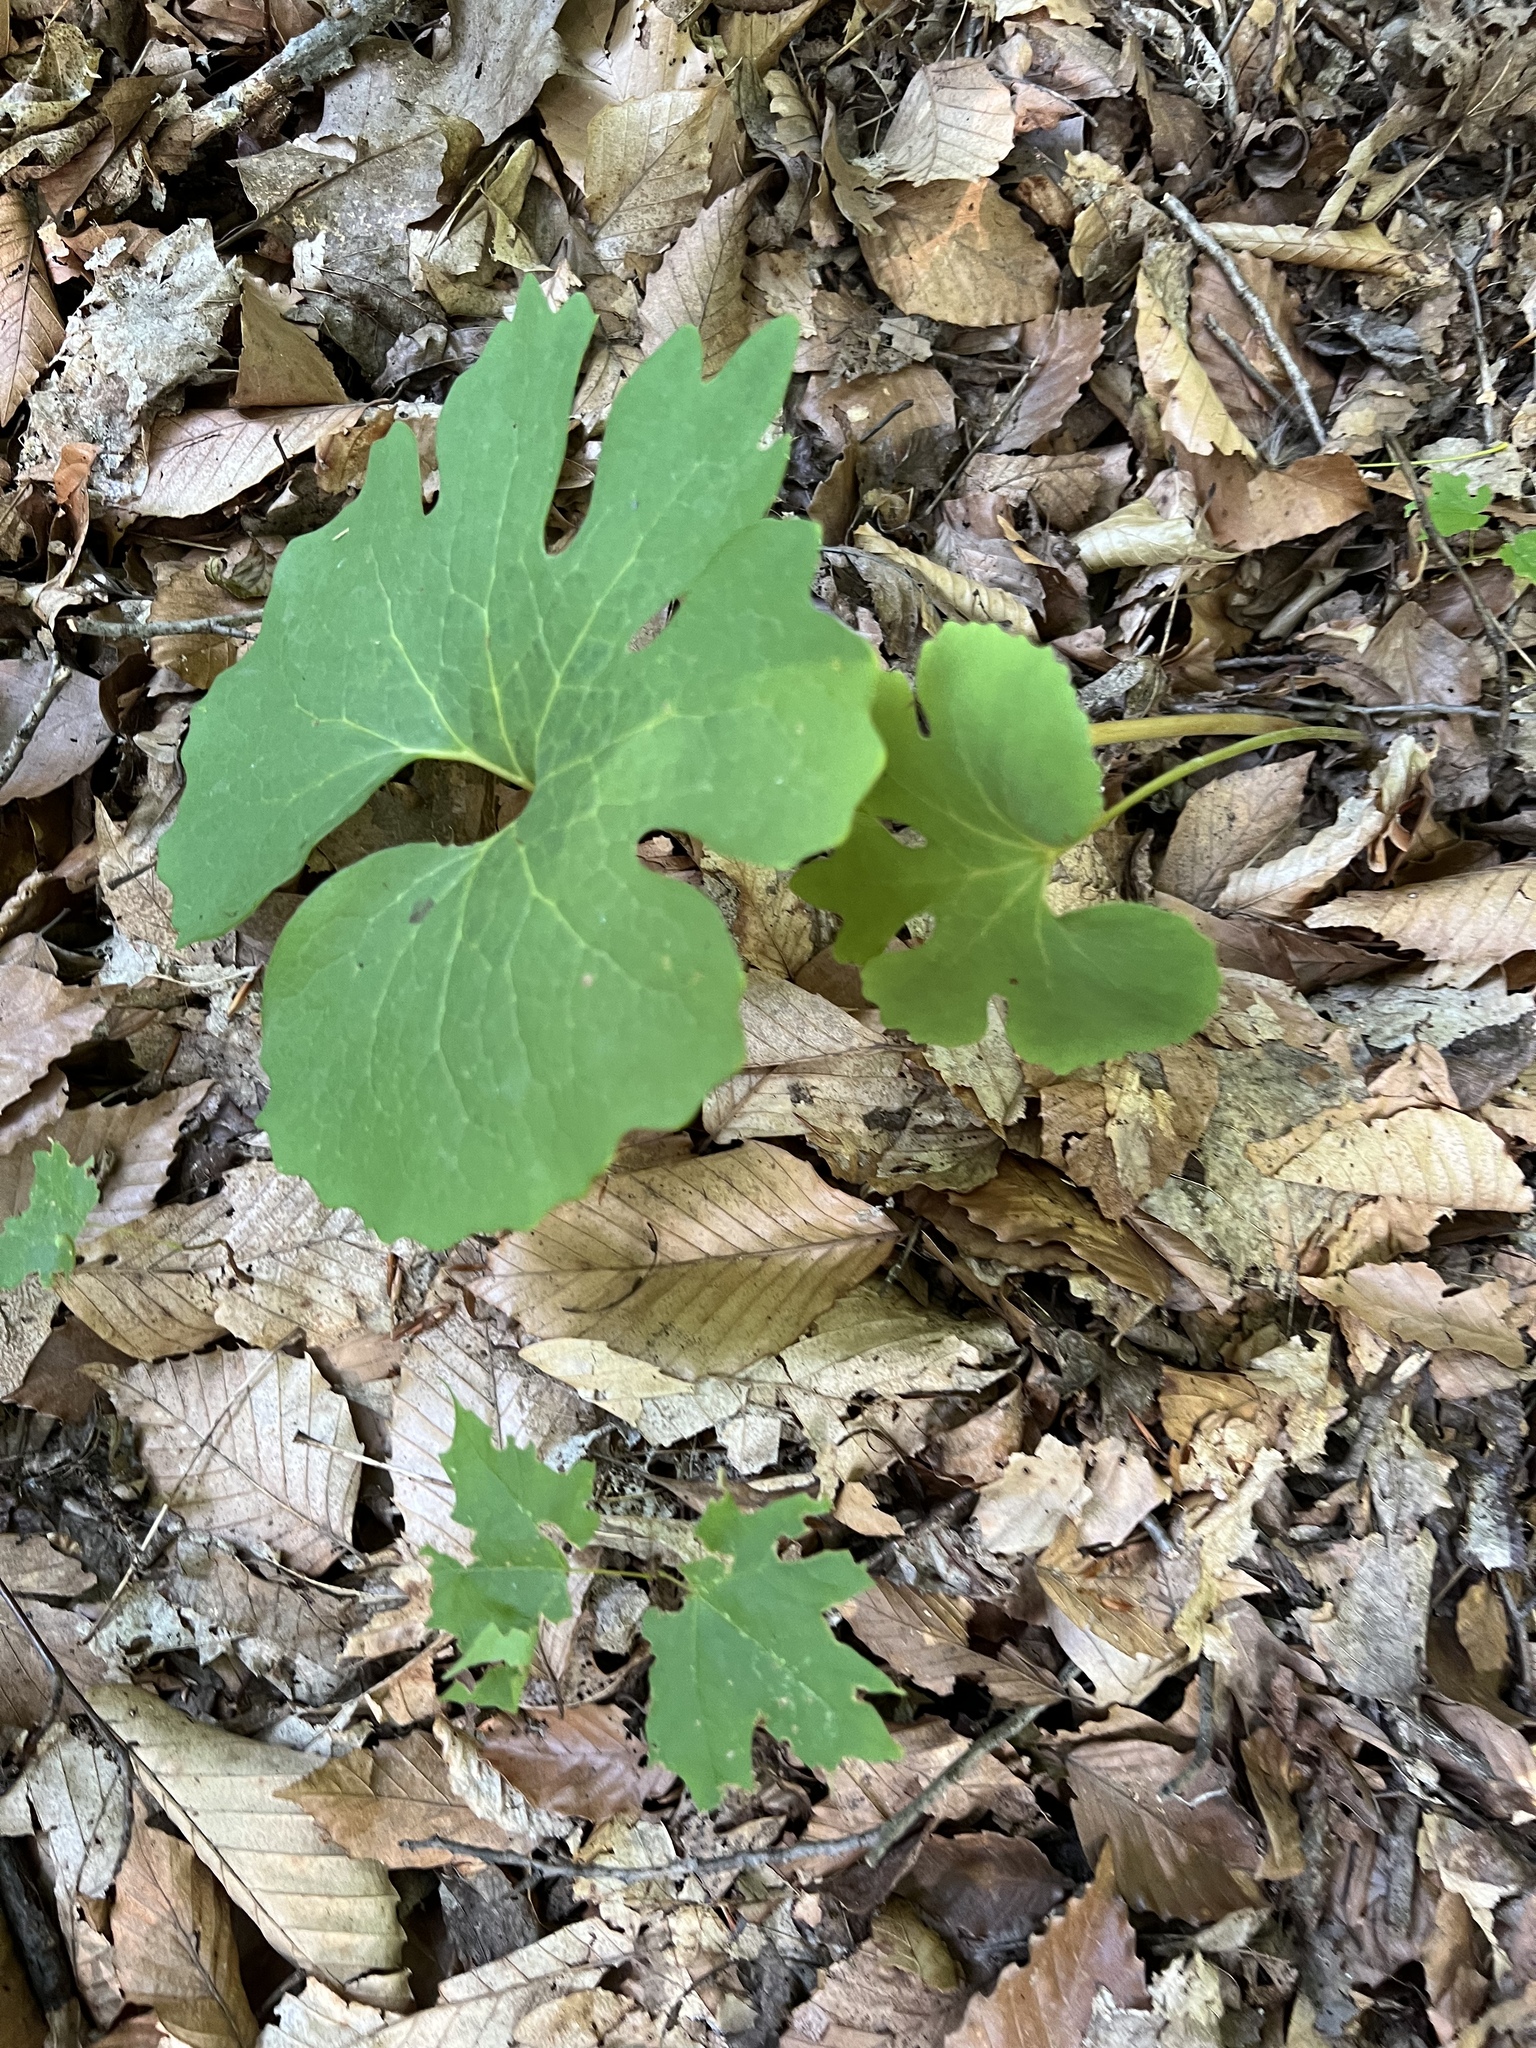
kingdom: Plantae
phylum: Tracheophyta
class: Magnoliopsida
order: Ranunculales
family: Papaveraceae
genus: Sanguinaria
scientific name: Sanguinaria canadensis
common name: Bloodroot
